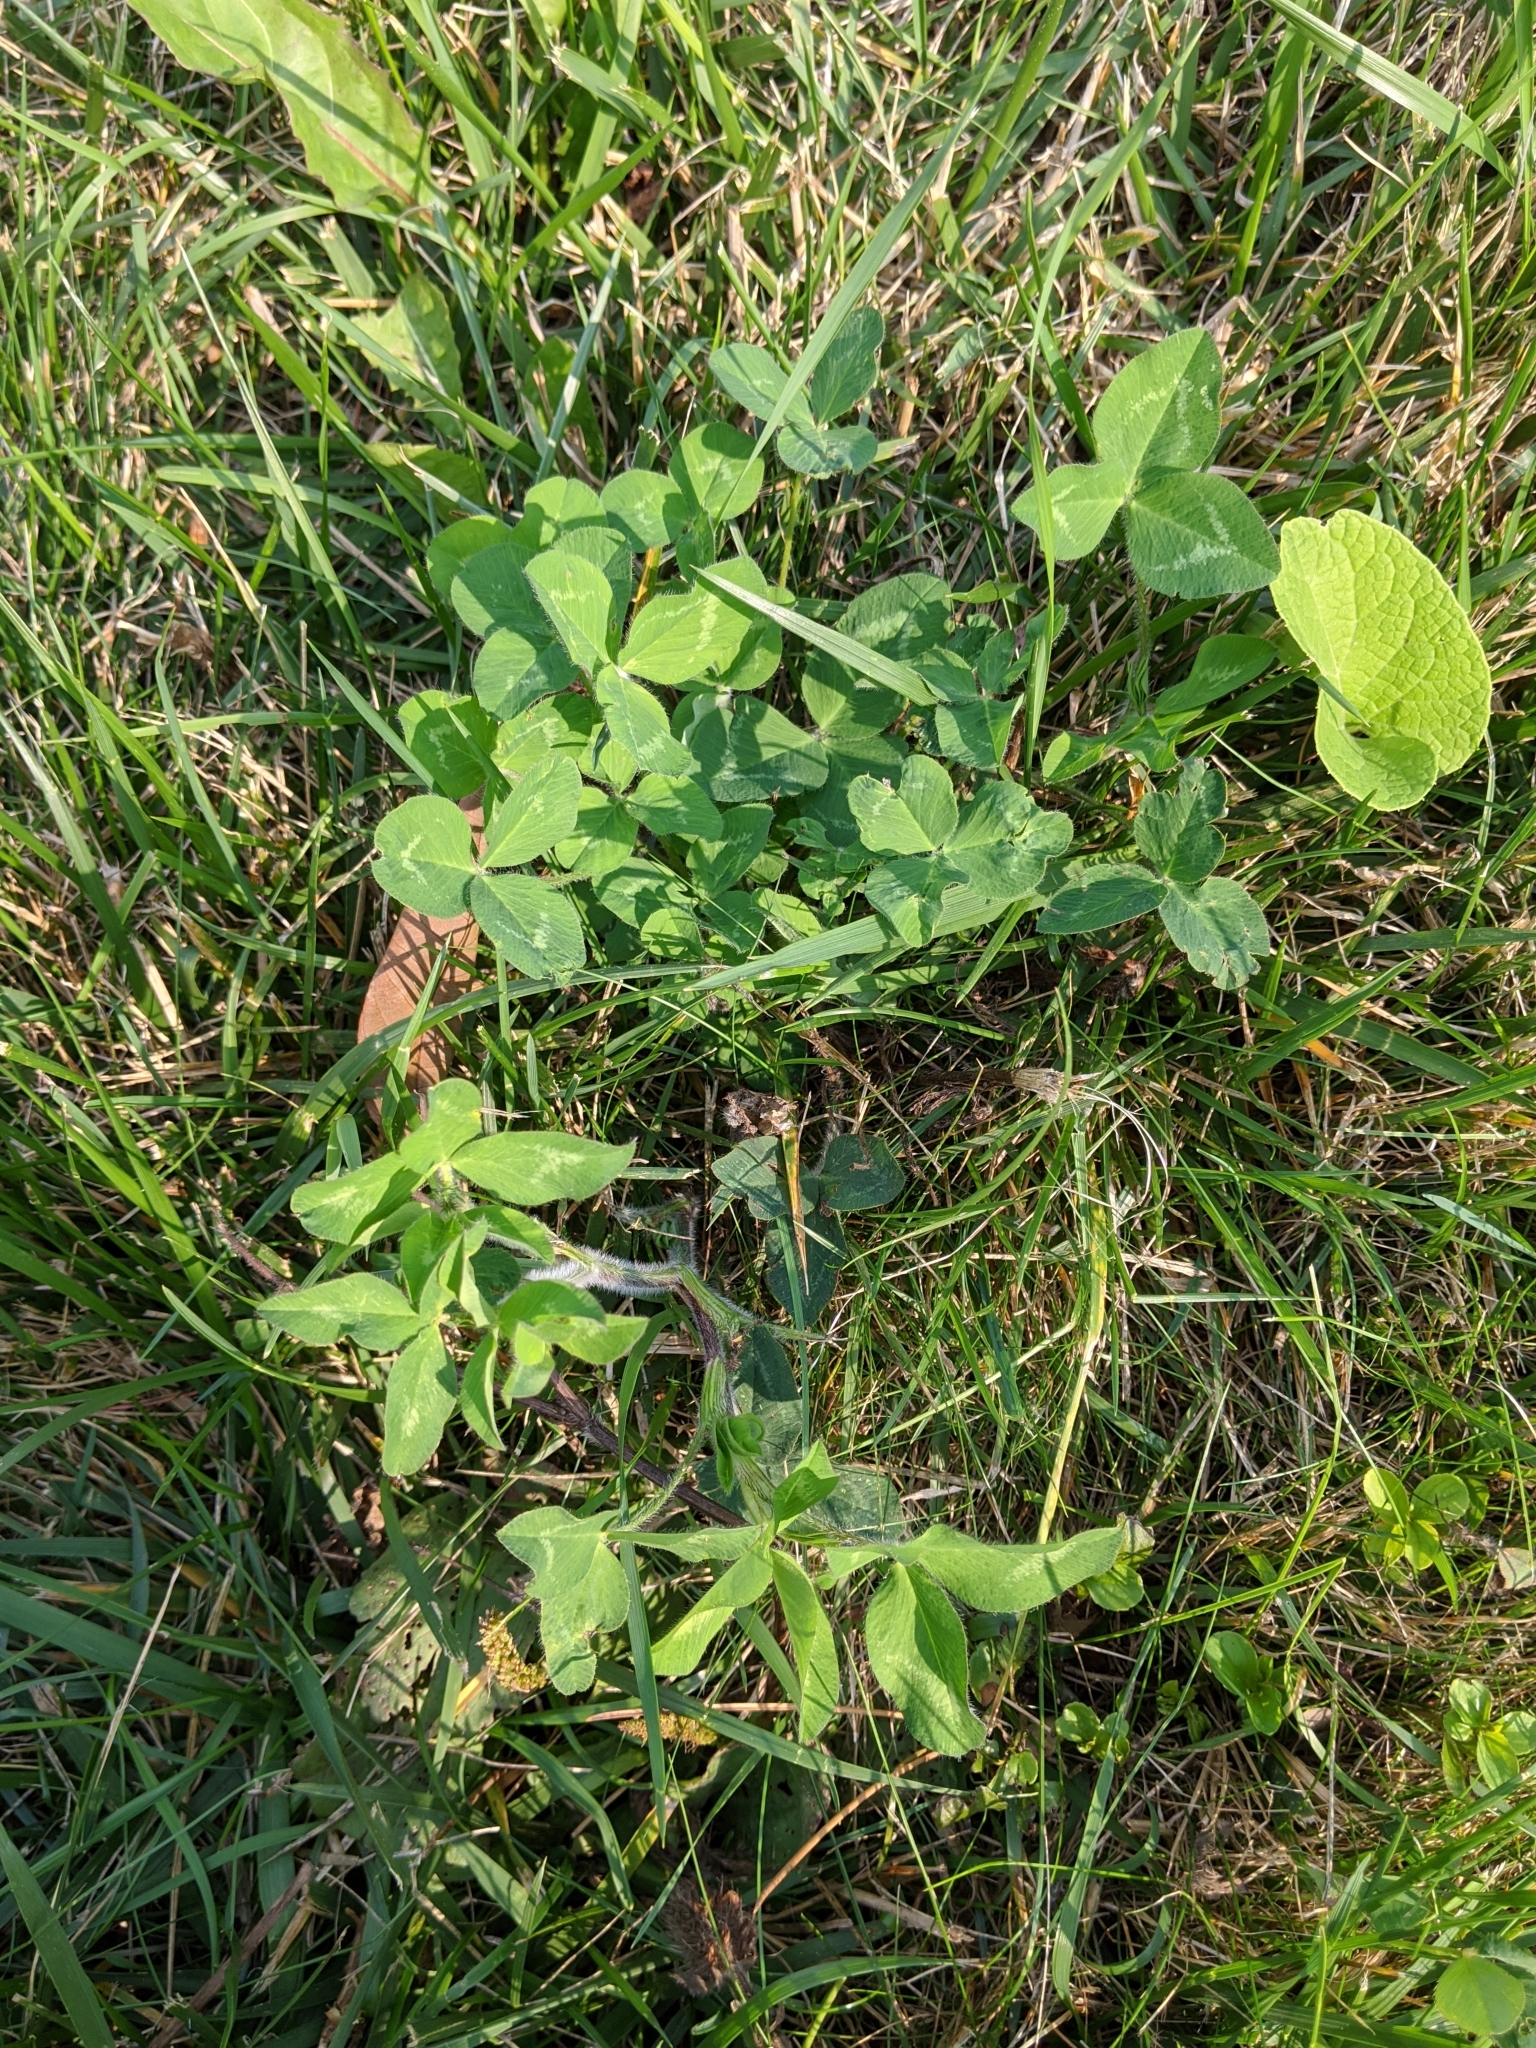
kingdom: Plantae
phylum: Tracheophyta
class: Magnoliopsida
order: Fabales
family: Fabaceae
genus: Trifolium
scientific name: Trifolium pratense
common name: Red clover
